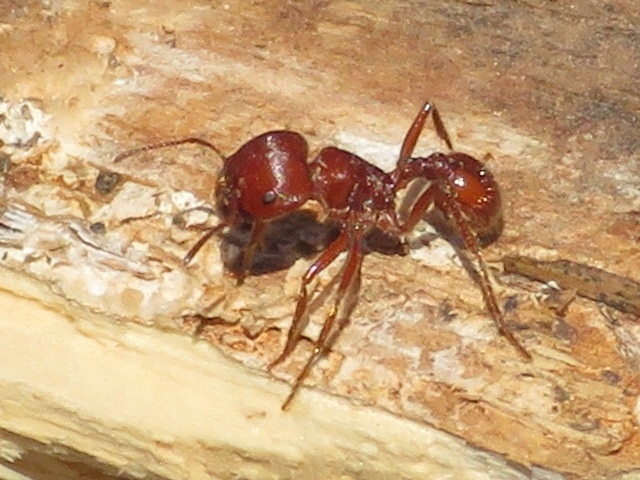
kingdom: Animalia
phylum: Arthropoda
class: Insecta
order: Hymenoptera
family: Formicidae
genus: Pogonomyrmex
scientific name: Pogonomyrmex barbatus
